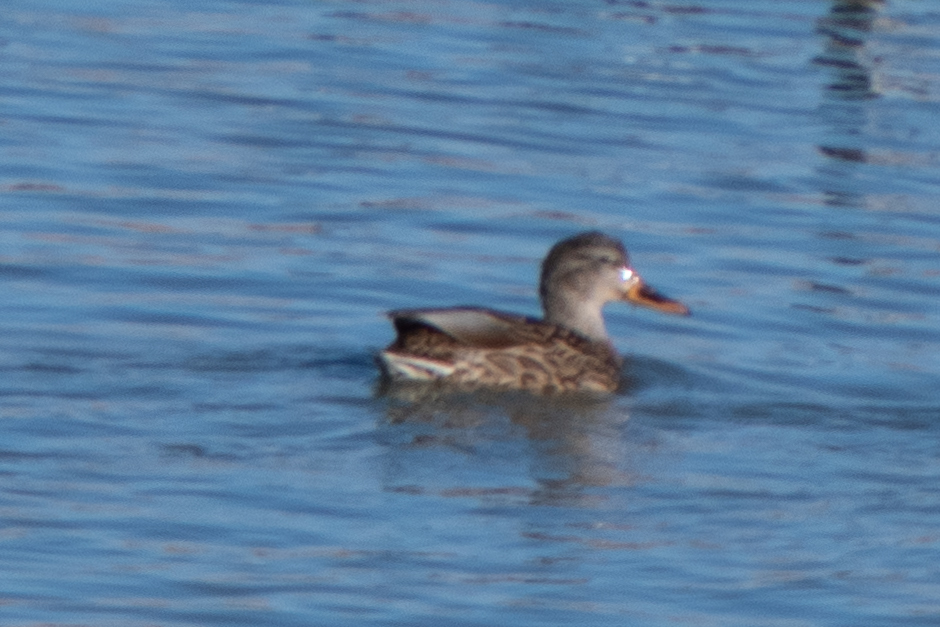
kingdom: Animalia
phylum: Chordata
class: Aves
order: Anseriformes
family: Anatidae
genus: Anas
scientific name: Anas platyrhynchos
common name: Mallard
